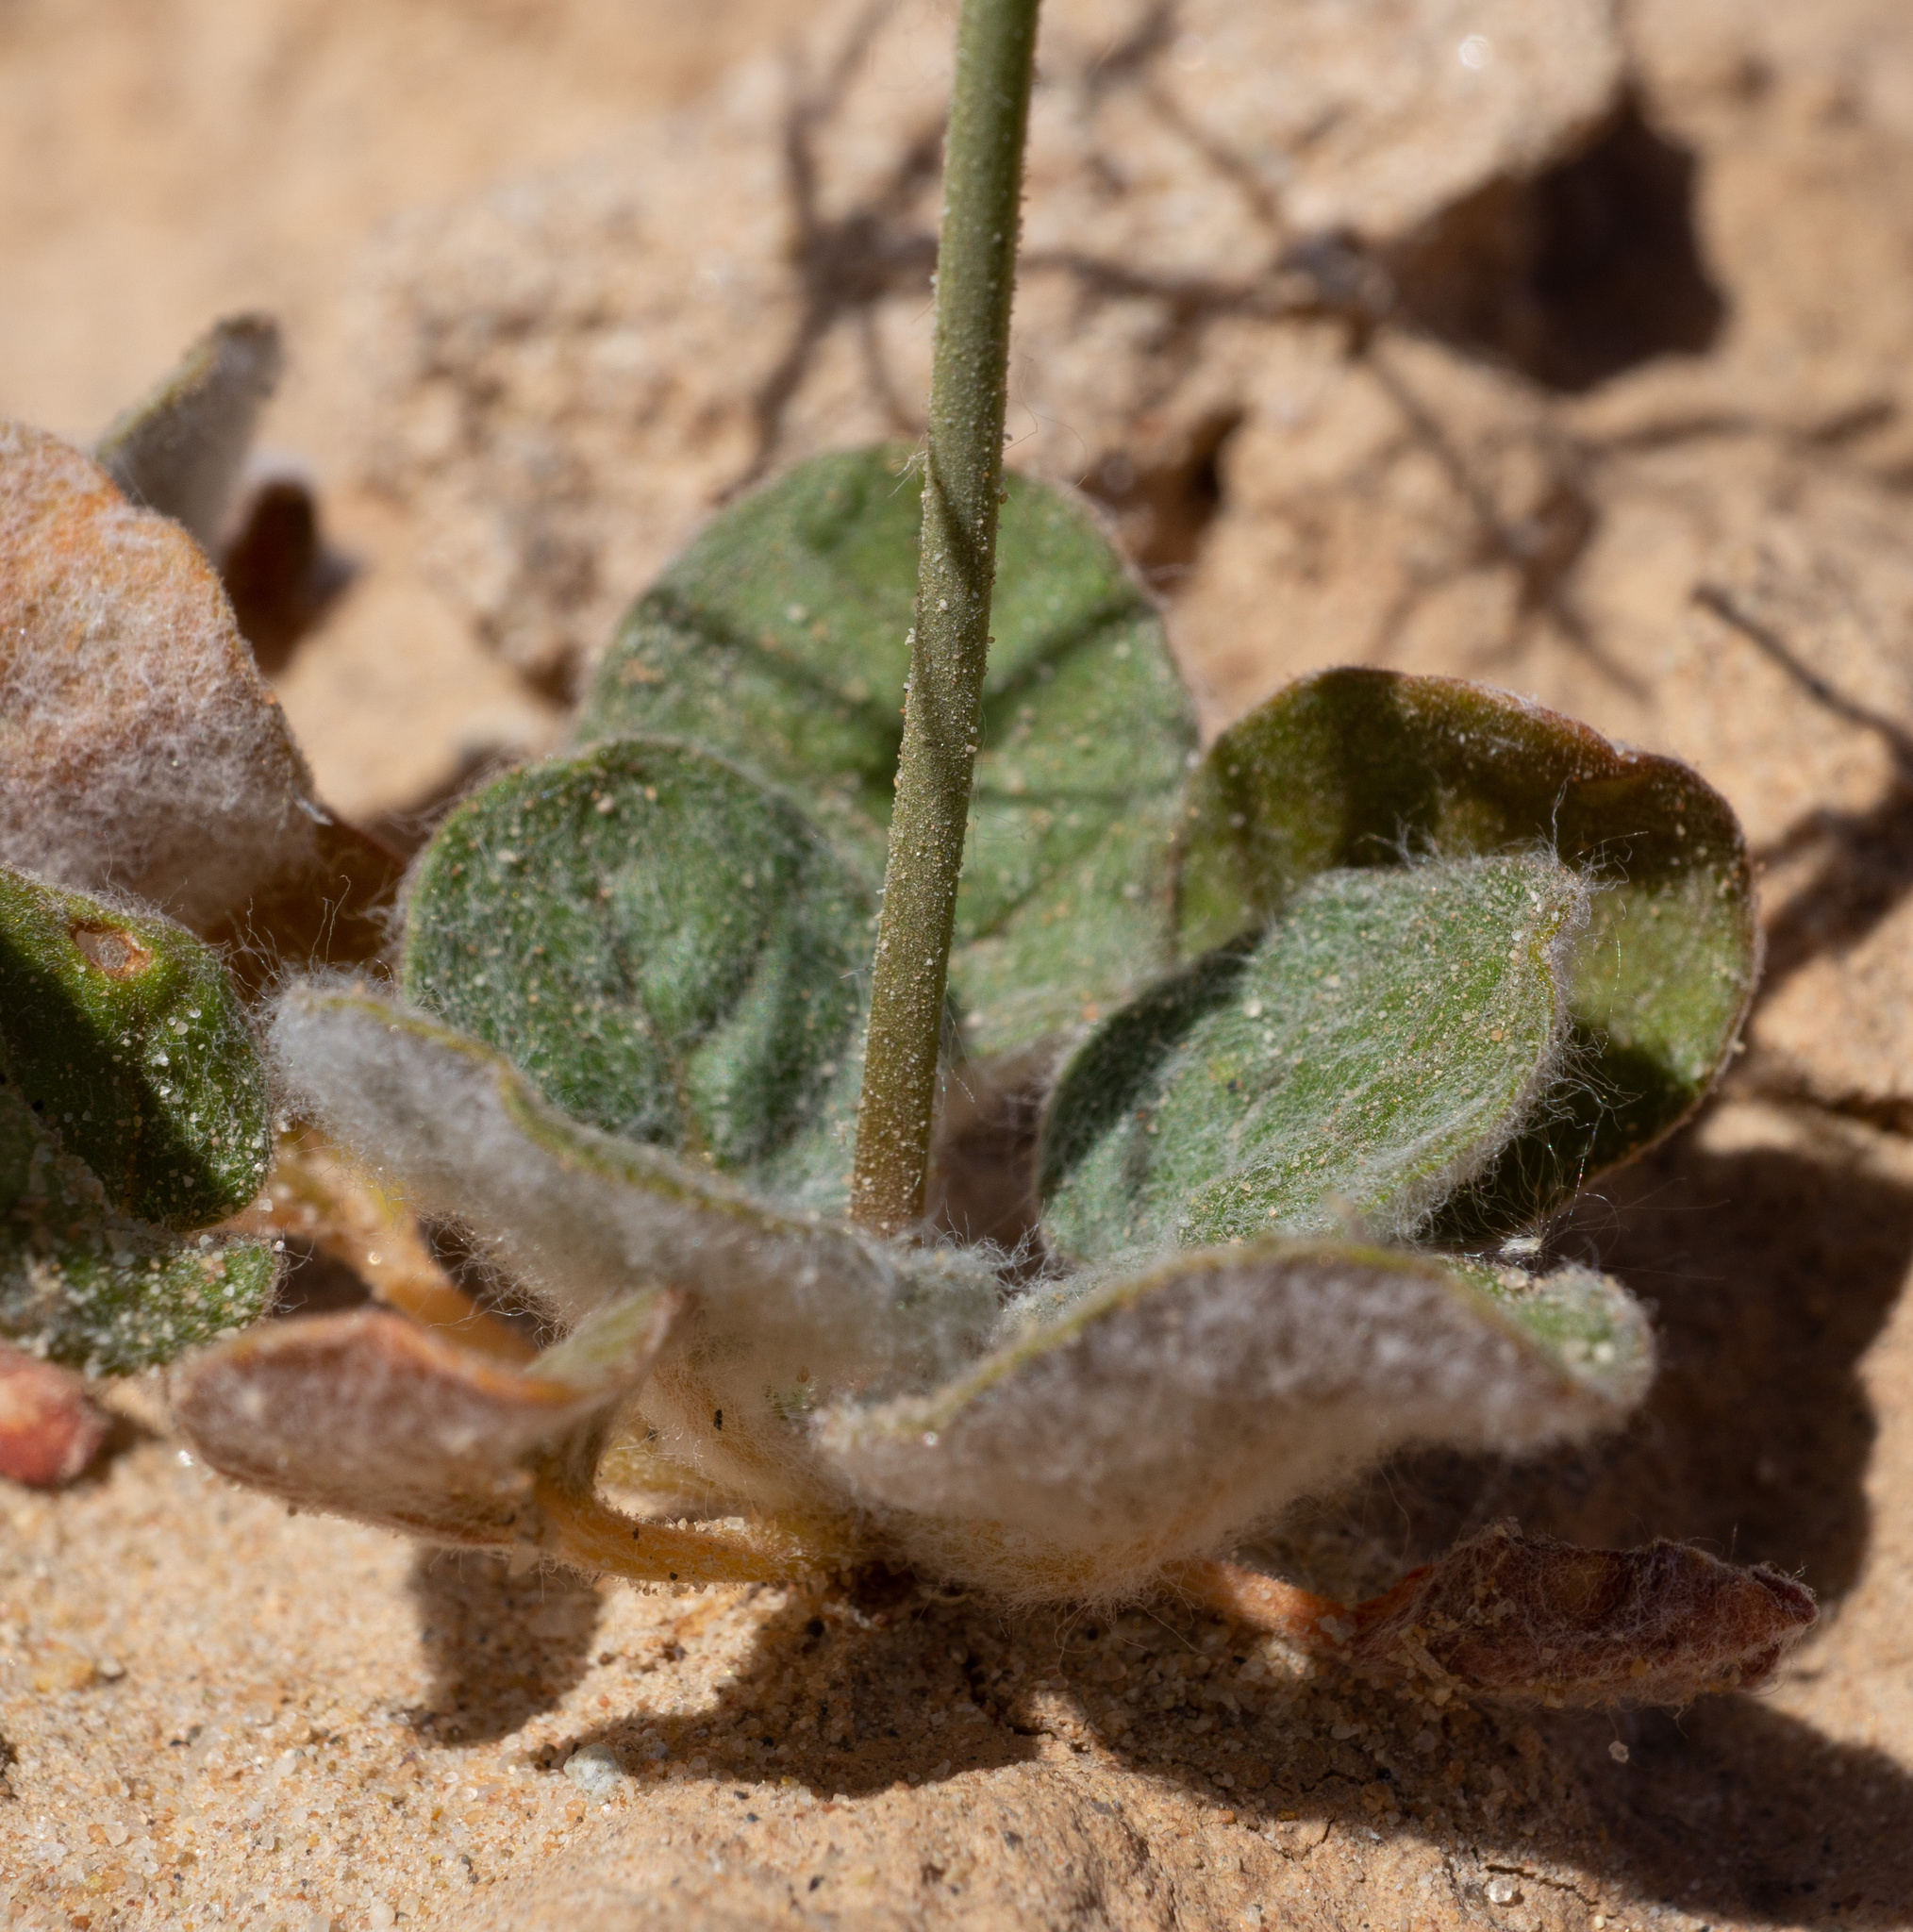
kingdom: Plantae
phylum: Tracheophyta
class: Magnoliopsida
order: Caryophyllales
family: Polygonaceae
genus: Eriogonum
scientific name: Eriogonum viscidulum
